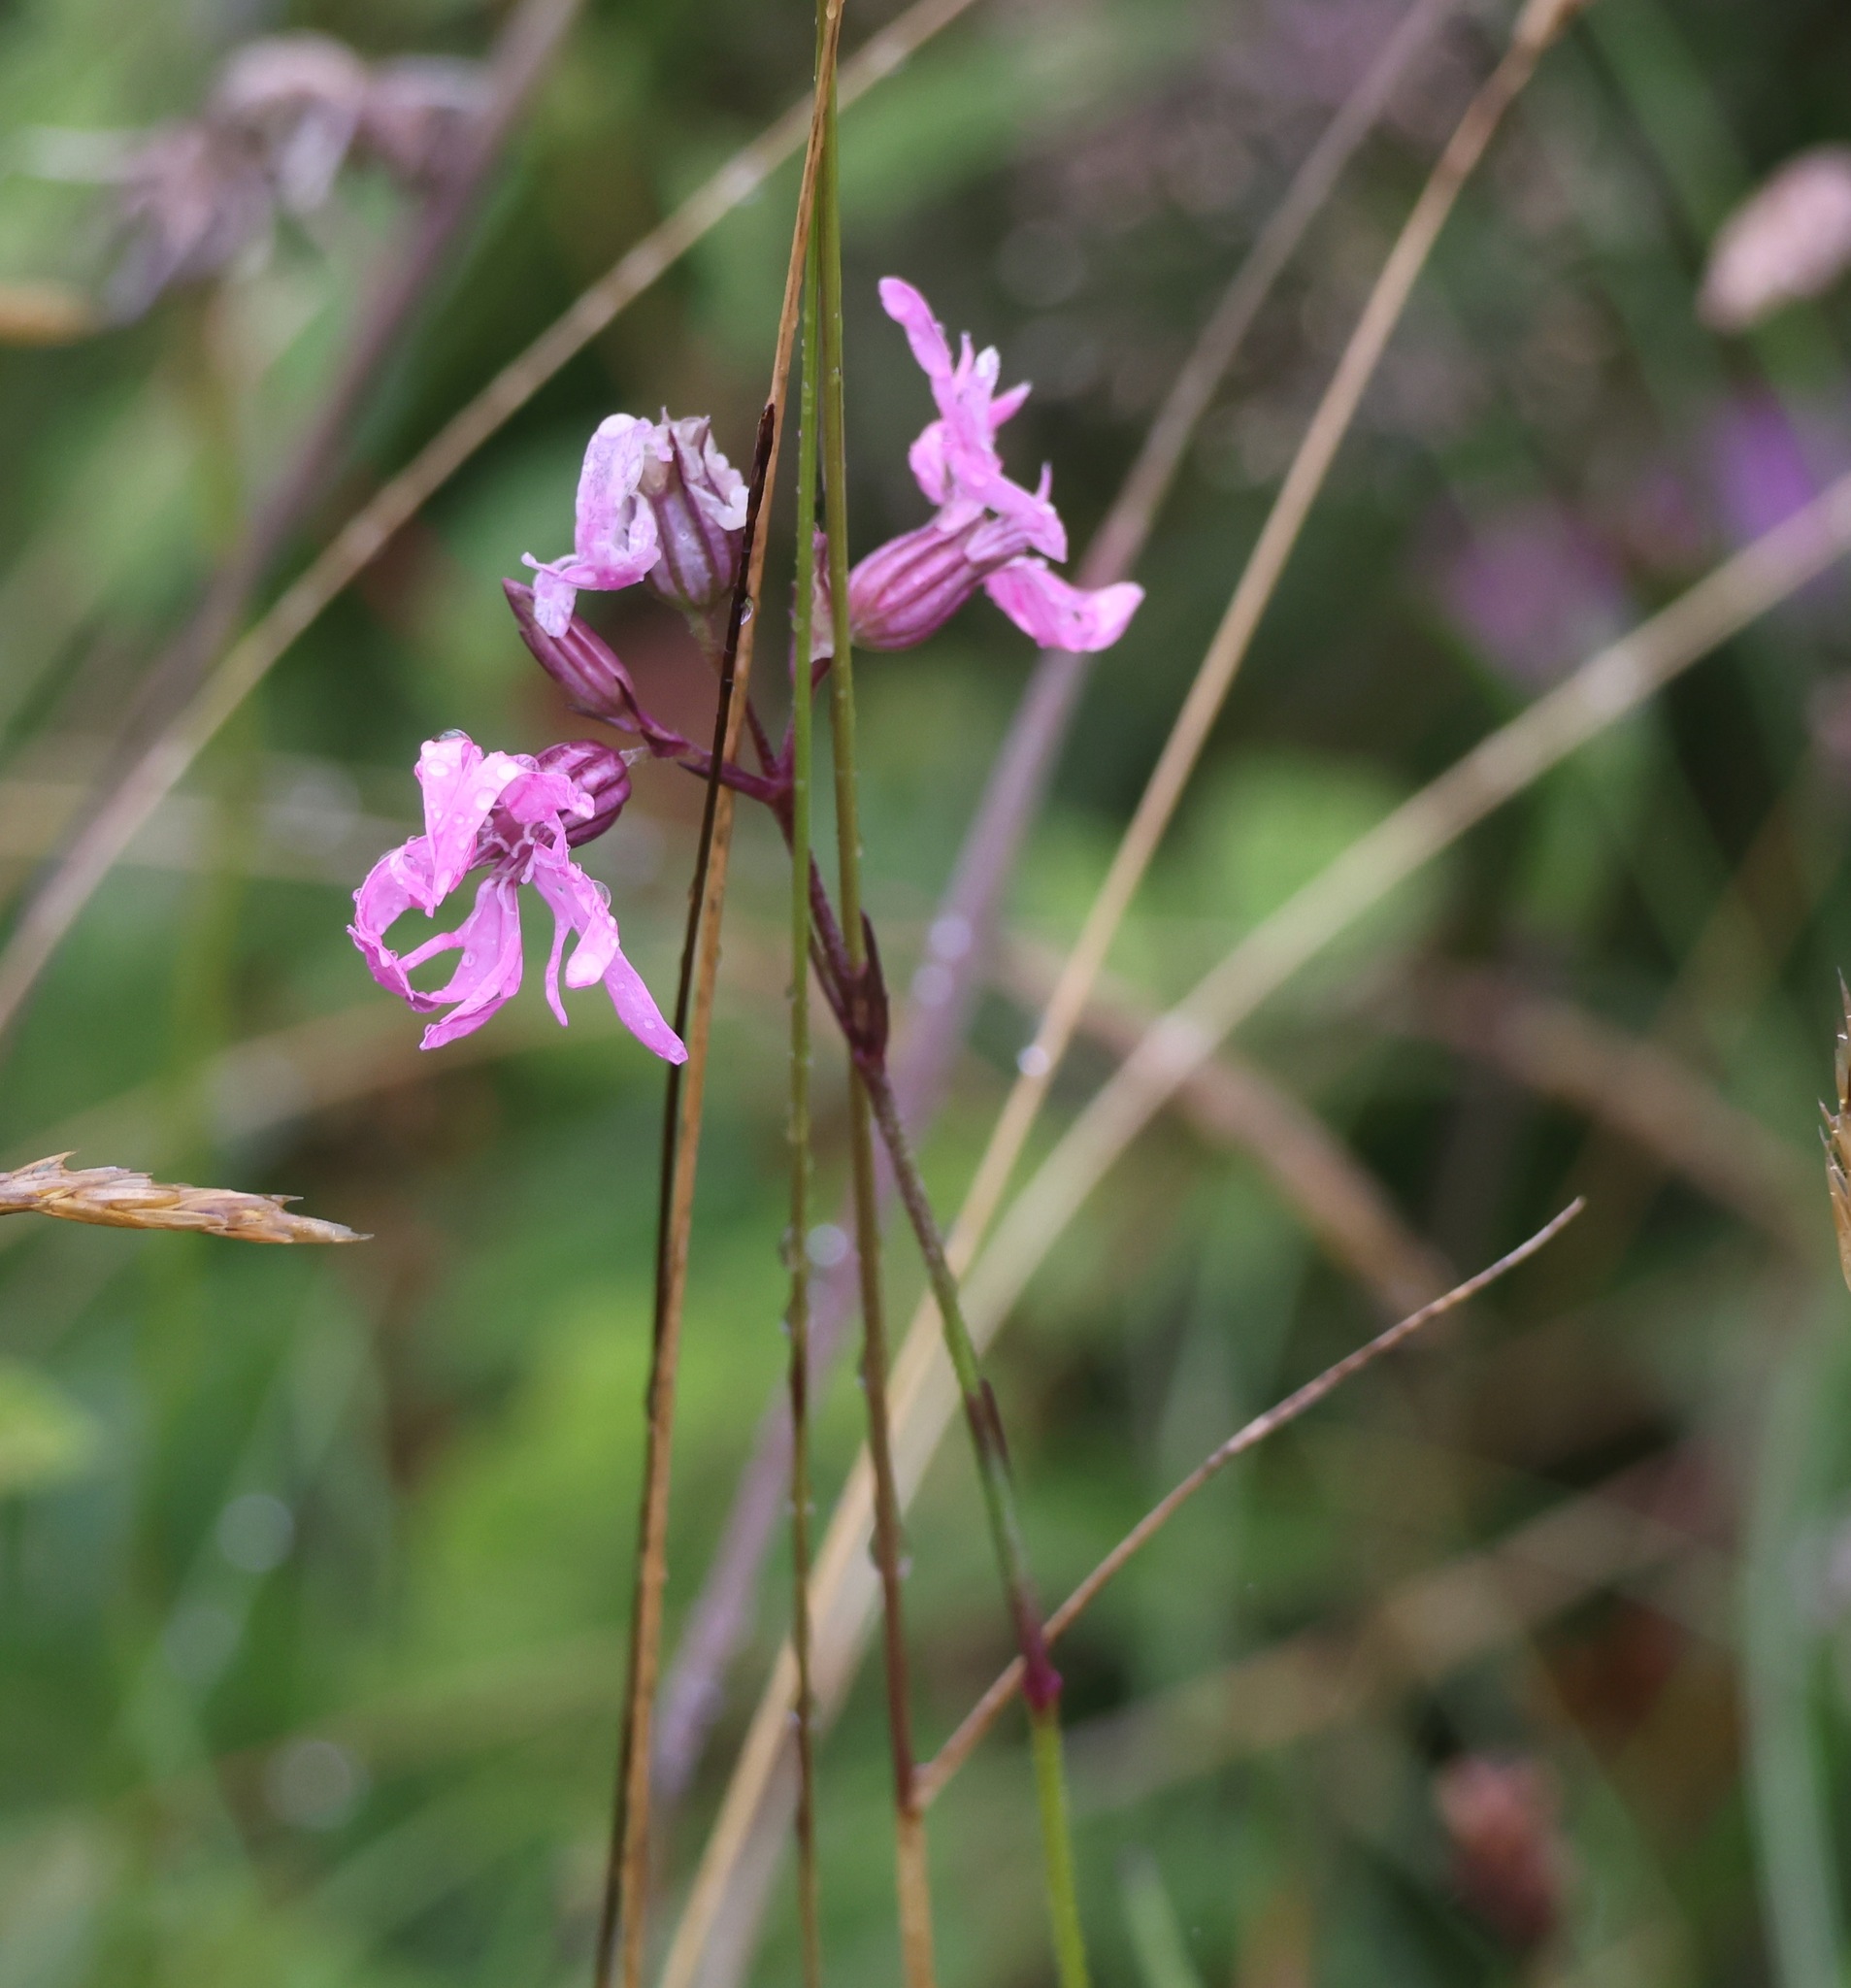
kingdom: Plantae
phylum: Tracheophyta
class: Magnoliopsida
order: Caryophyllales
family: Caryophyllaceae
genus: Silene
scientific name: Silene flos-cuculi
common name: Ragged-robin
